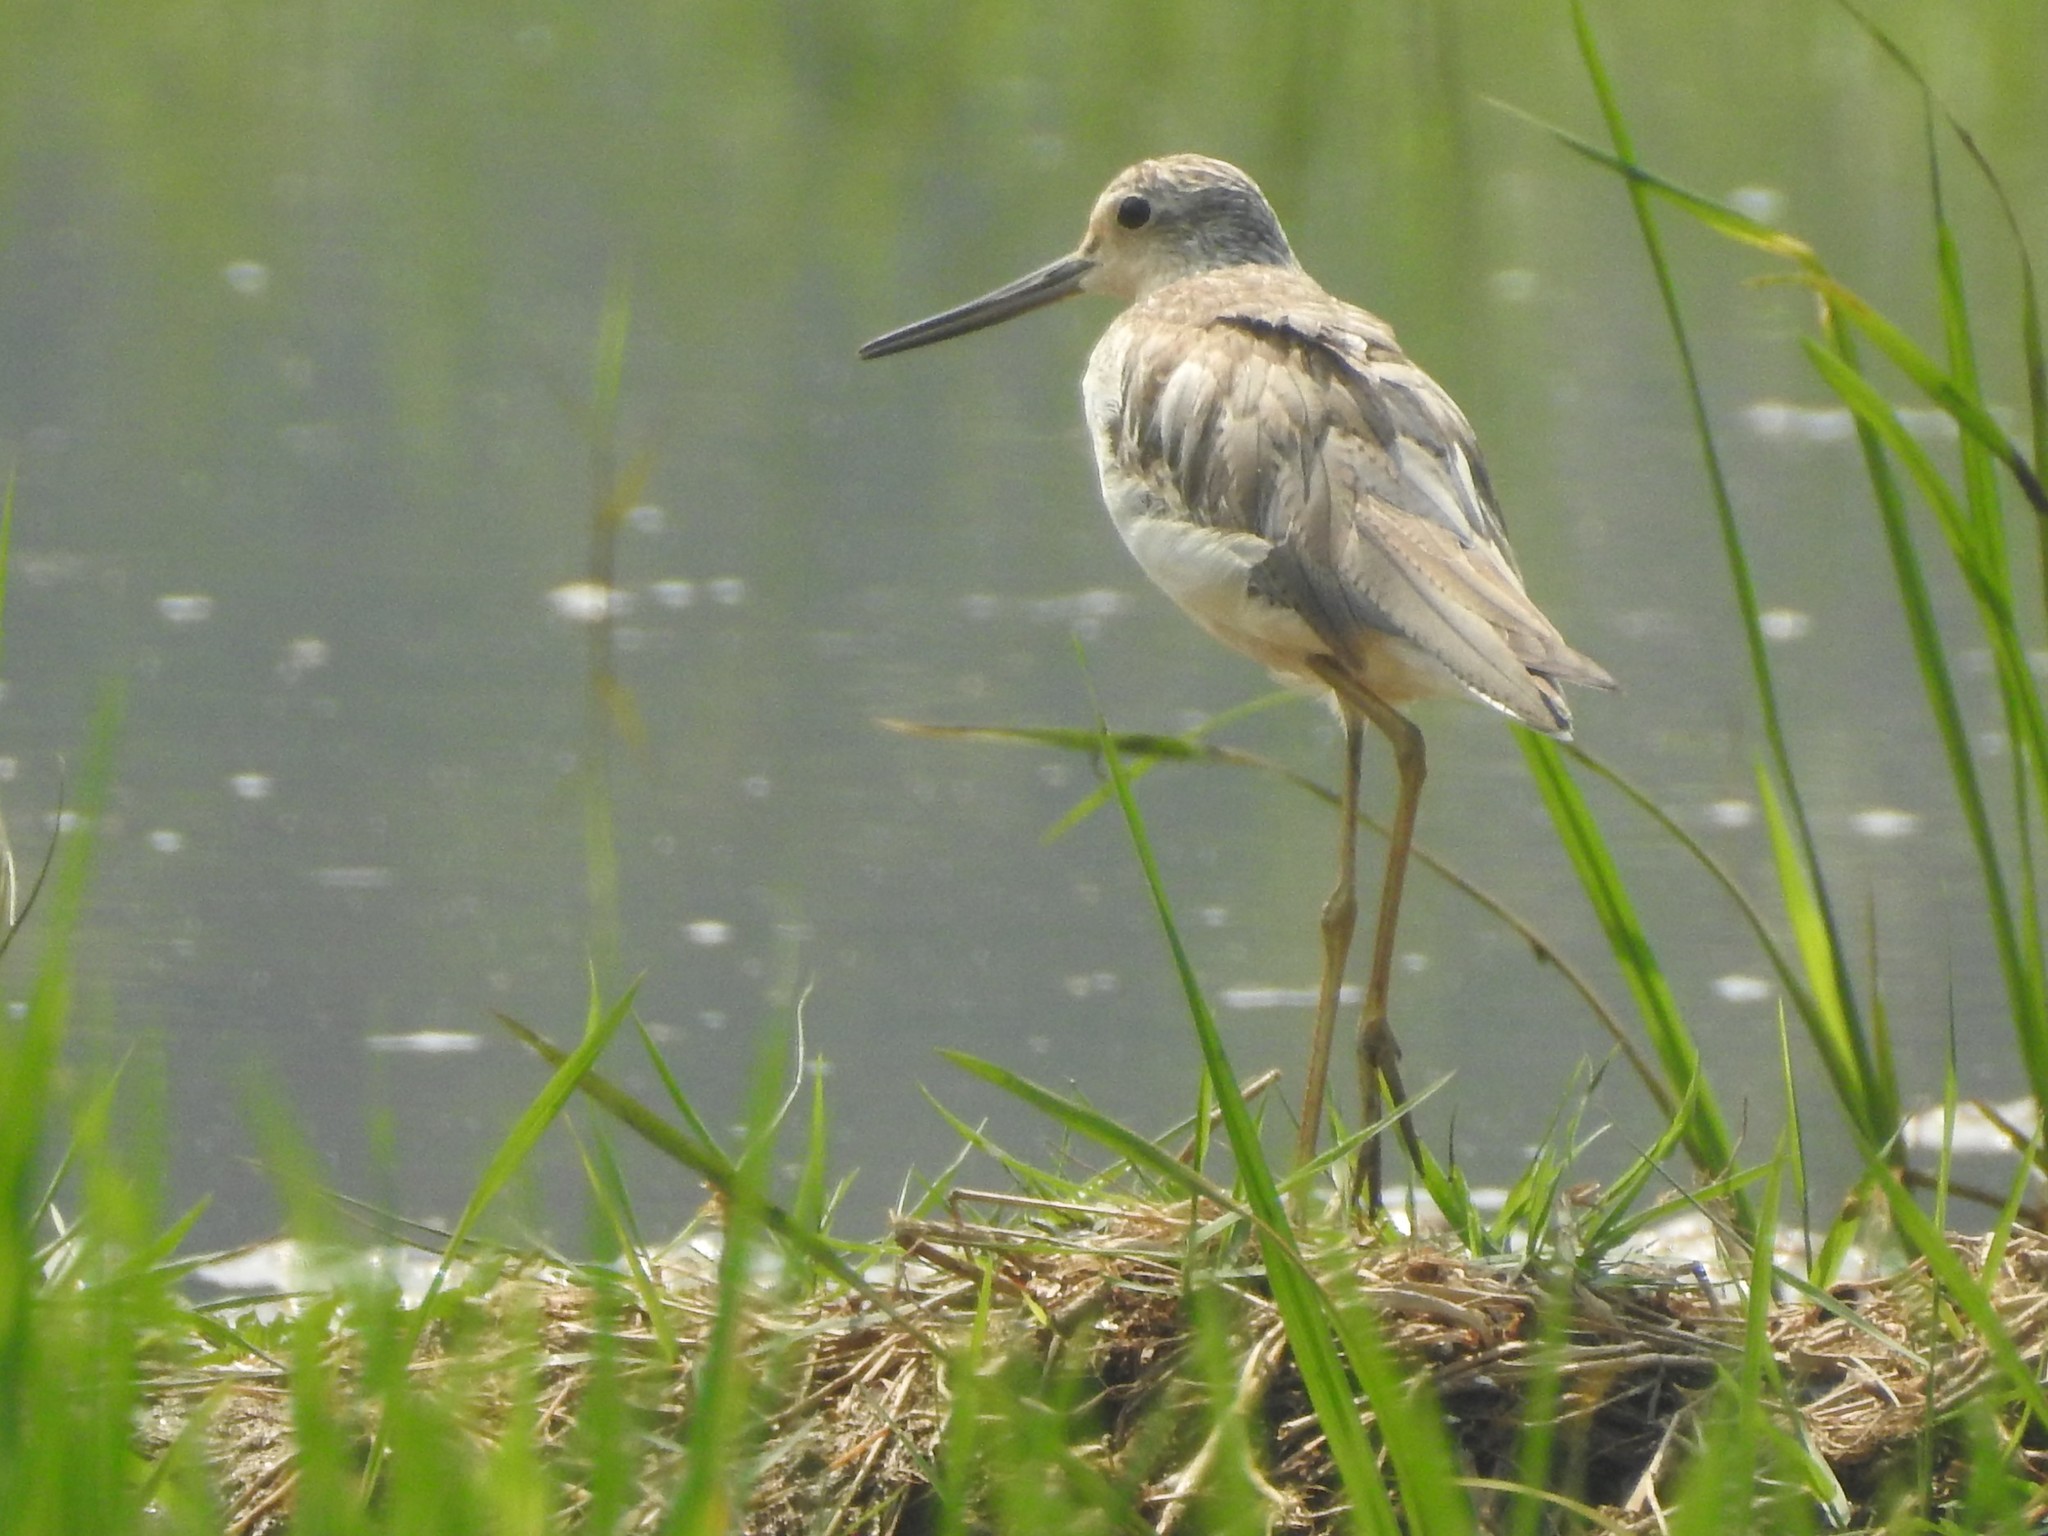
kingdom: Animalia
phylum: Chordata
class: Aves
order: Charadriiformes
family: Scolopacidae
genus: Tringa
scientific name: Tringa nebularia
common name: Common greenshank
